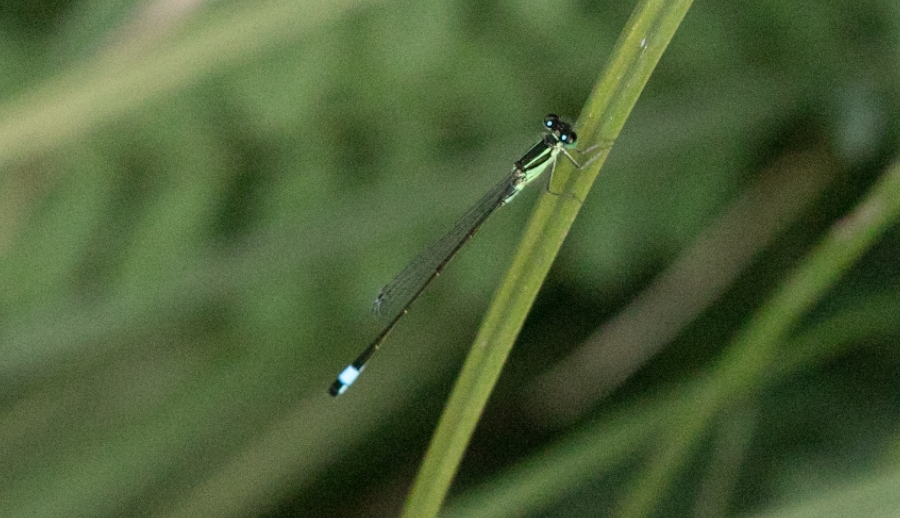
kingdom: Animalia
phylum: Arthropoda
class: Insecta
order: Odonata
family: Coenagrionidae
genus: Ischnura
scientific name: Ischnura elegans
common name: Blue-tailed damselfly
